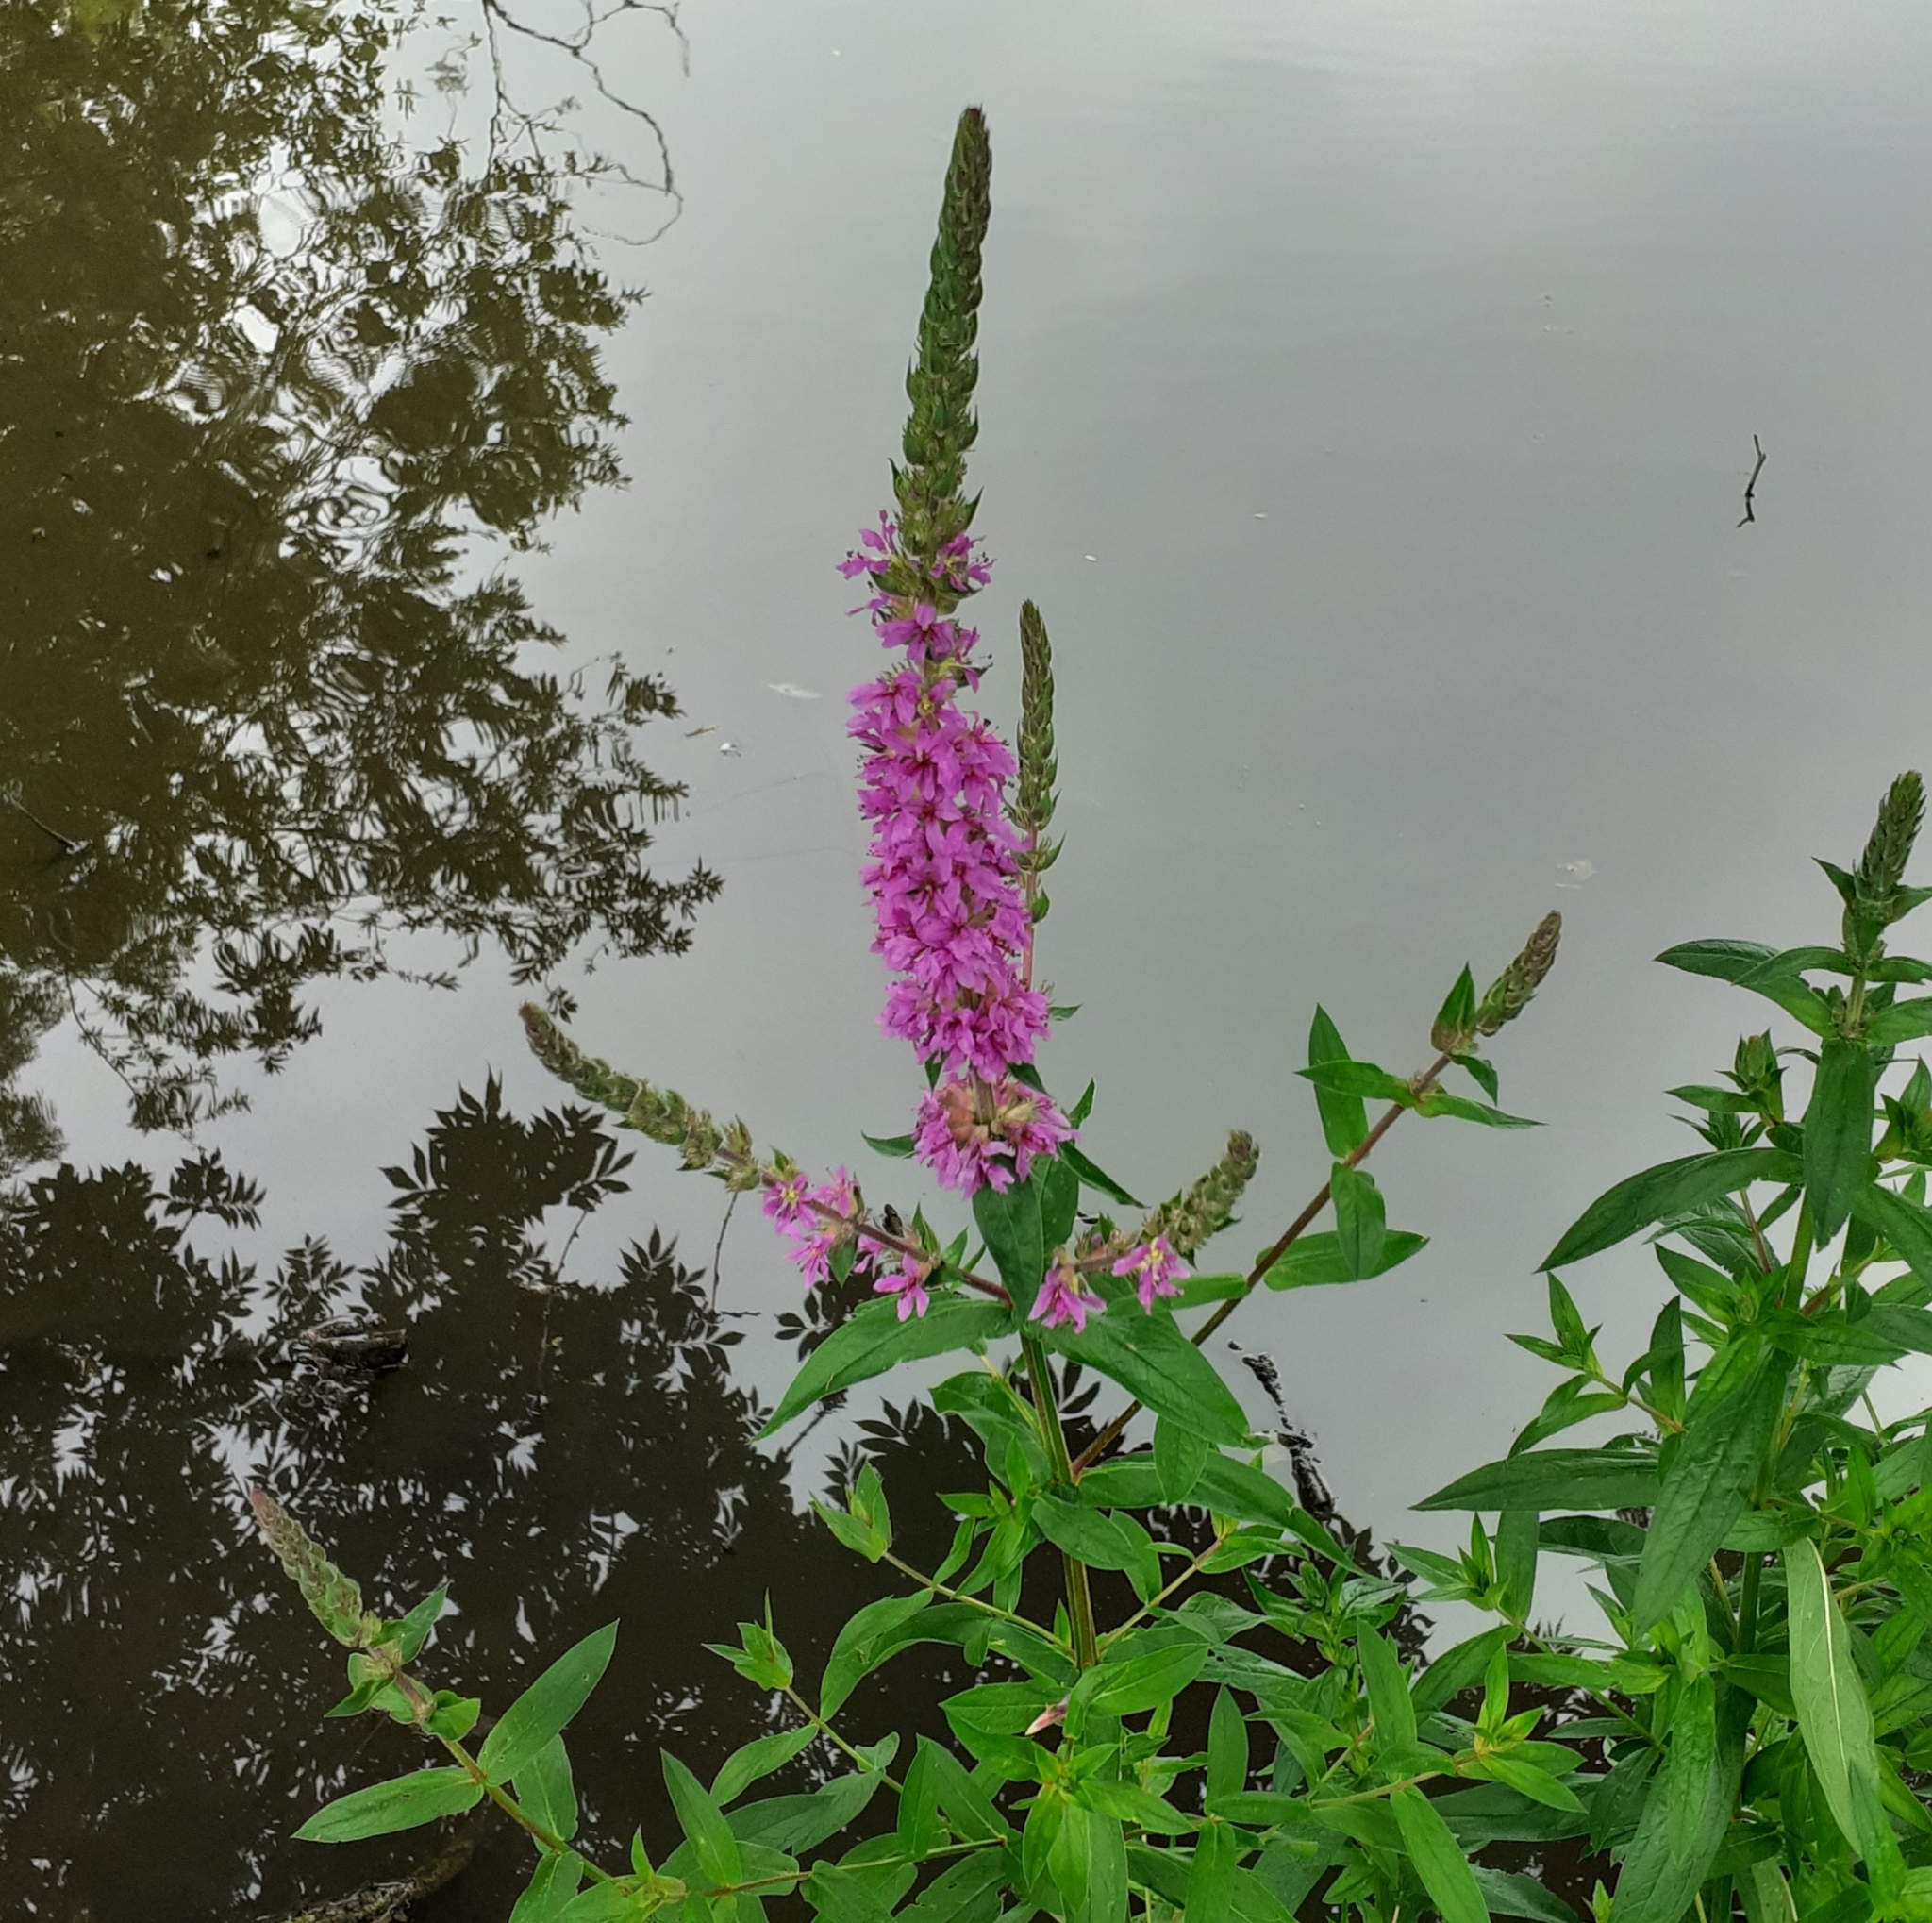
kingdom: Plantae
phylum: Tracheophyta
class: Magnoliopsida
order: Myrtales
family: Lythraceae
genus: Lythrum
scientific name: Lythrum salicaria
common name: Purple loosestrife
